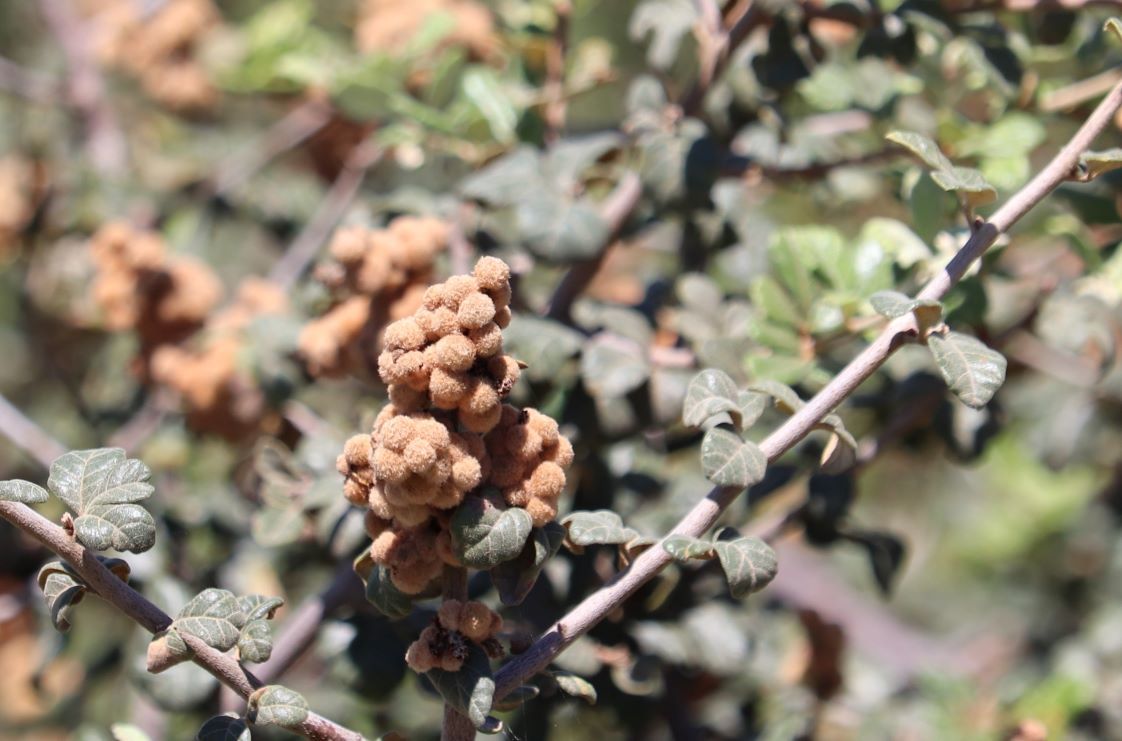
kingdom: Plantae
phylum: Tracheophyta
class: Magnoliopsida
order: Sapindales
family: Anacardiaceae
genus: Searsia
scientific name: Searsia incisa
